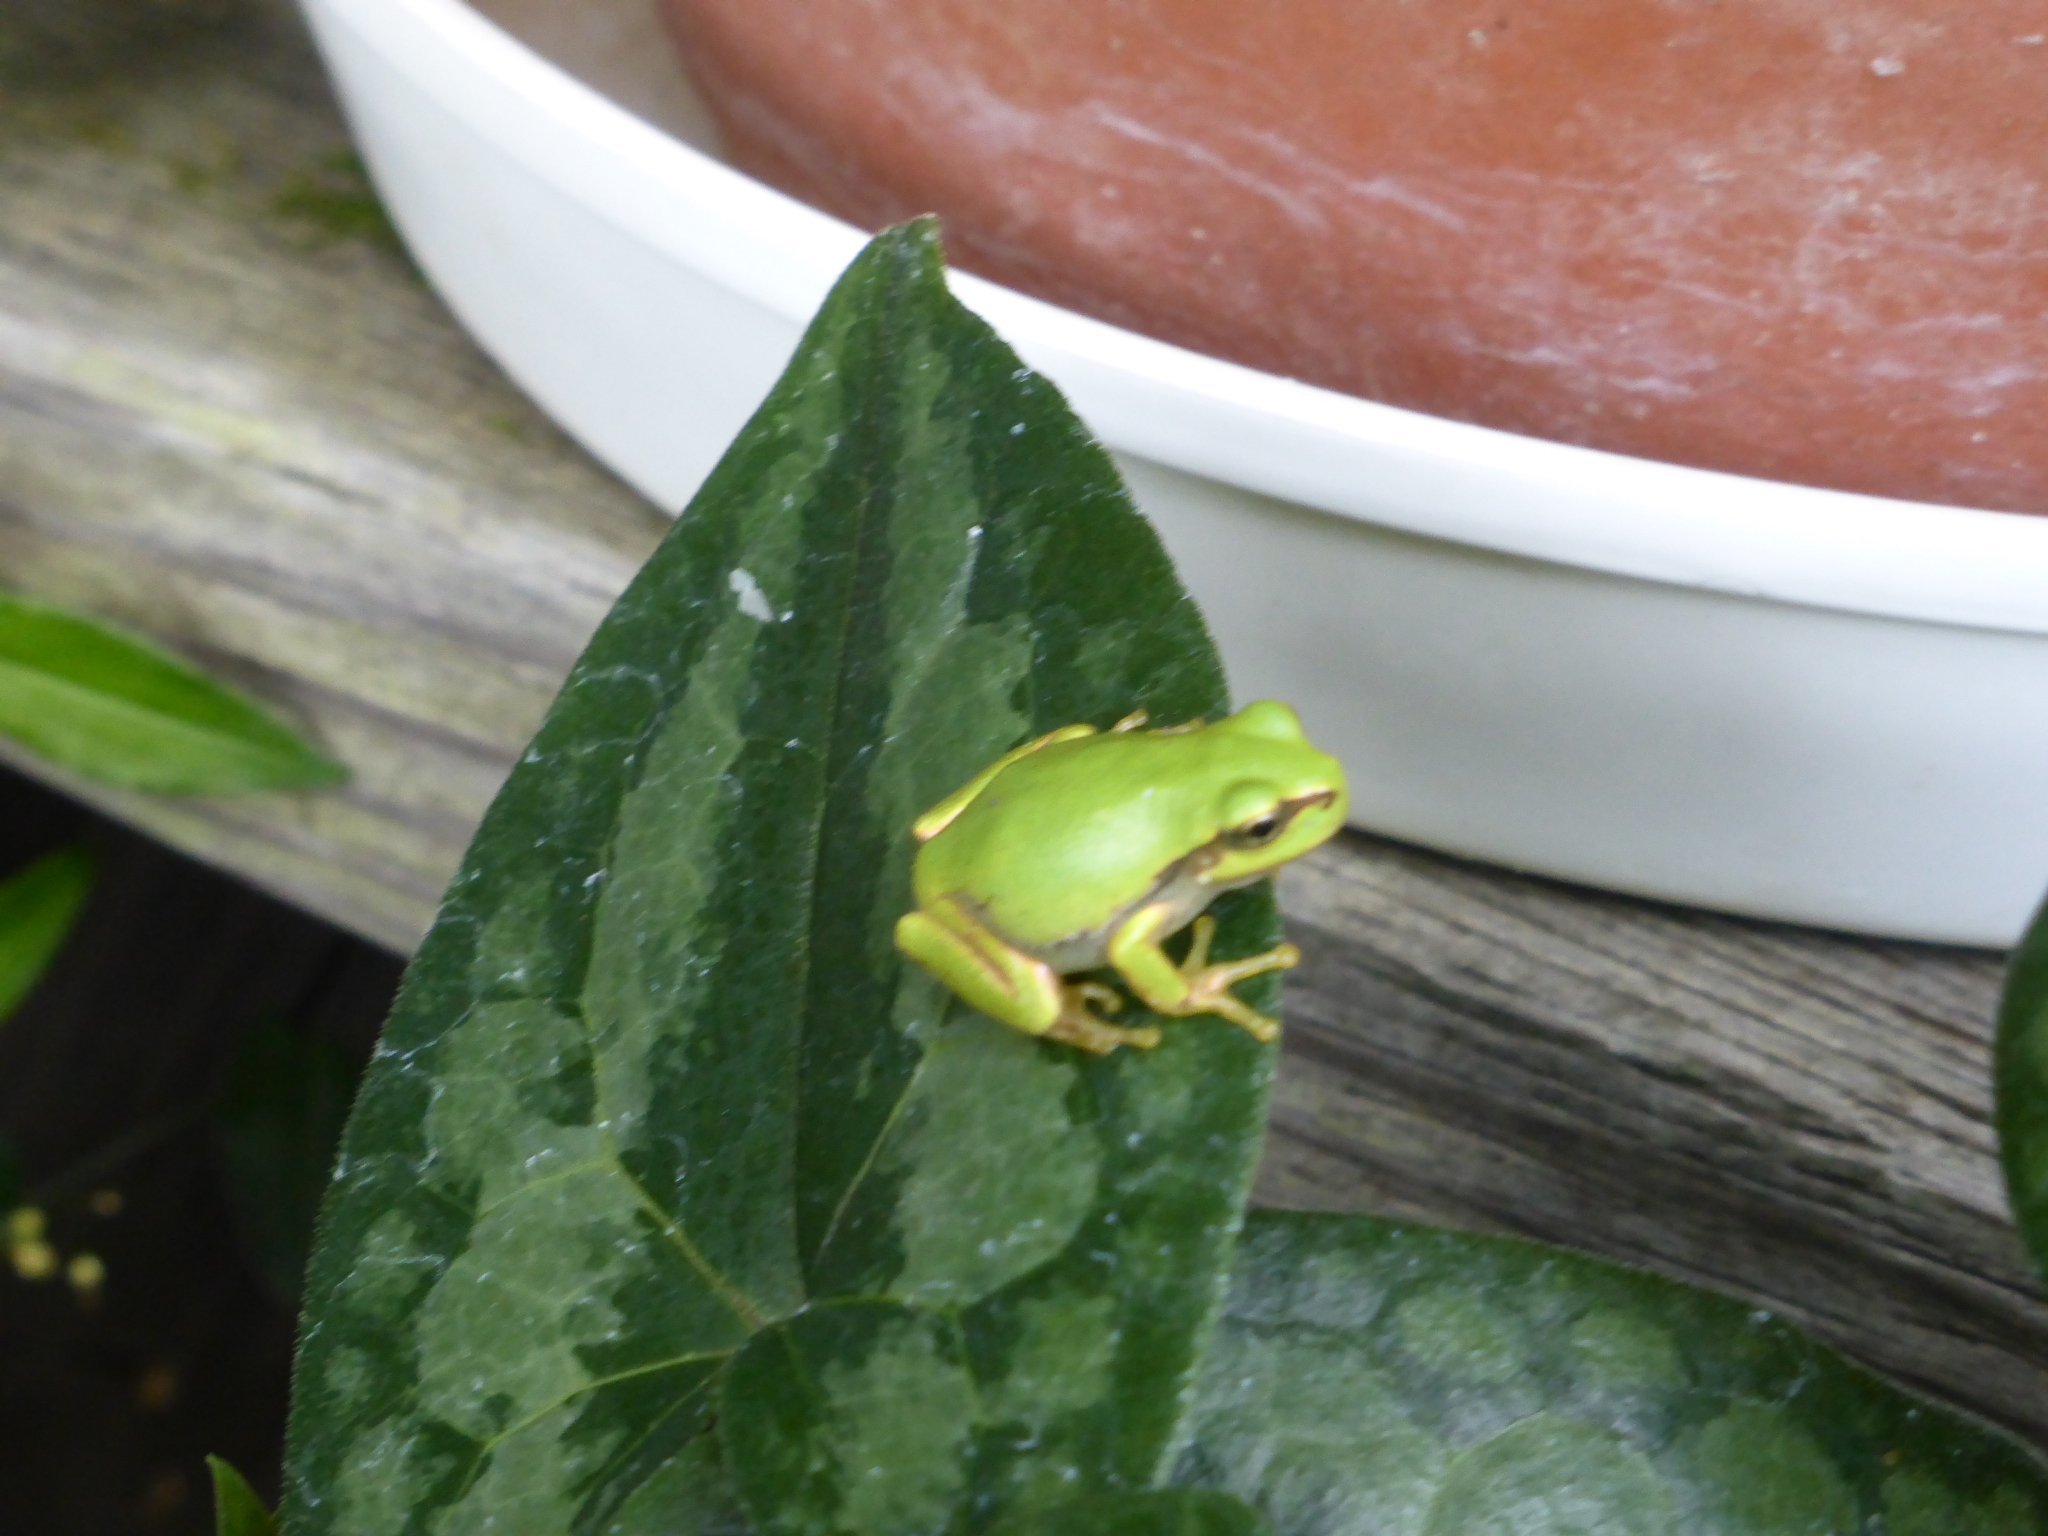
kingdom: Animalia
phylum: Chordata
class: Amphibia
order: Anura
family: Hylidae
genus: Dryophytes
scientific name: Dryophytes japonicus
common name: Japanese treefrog
